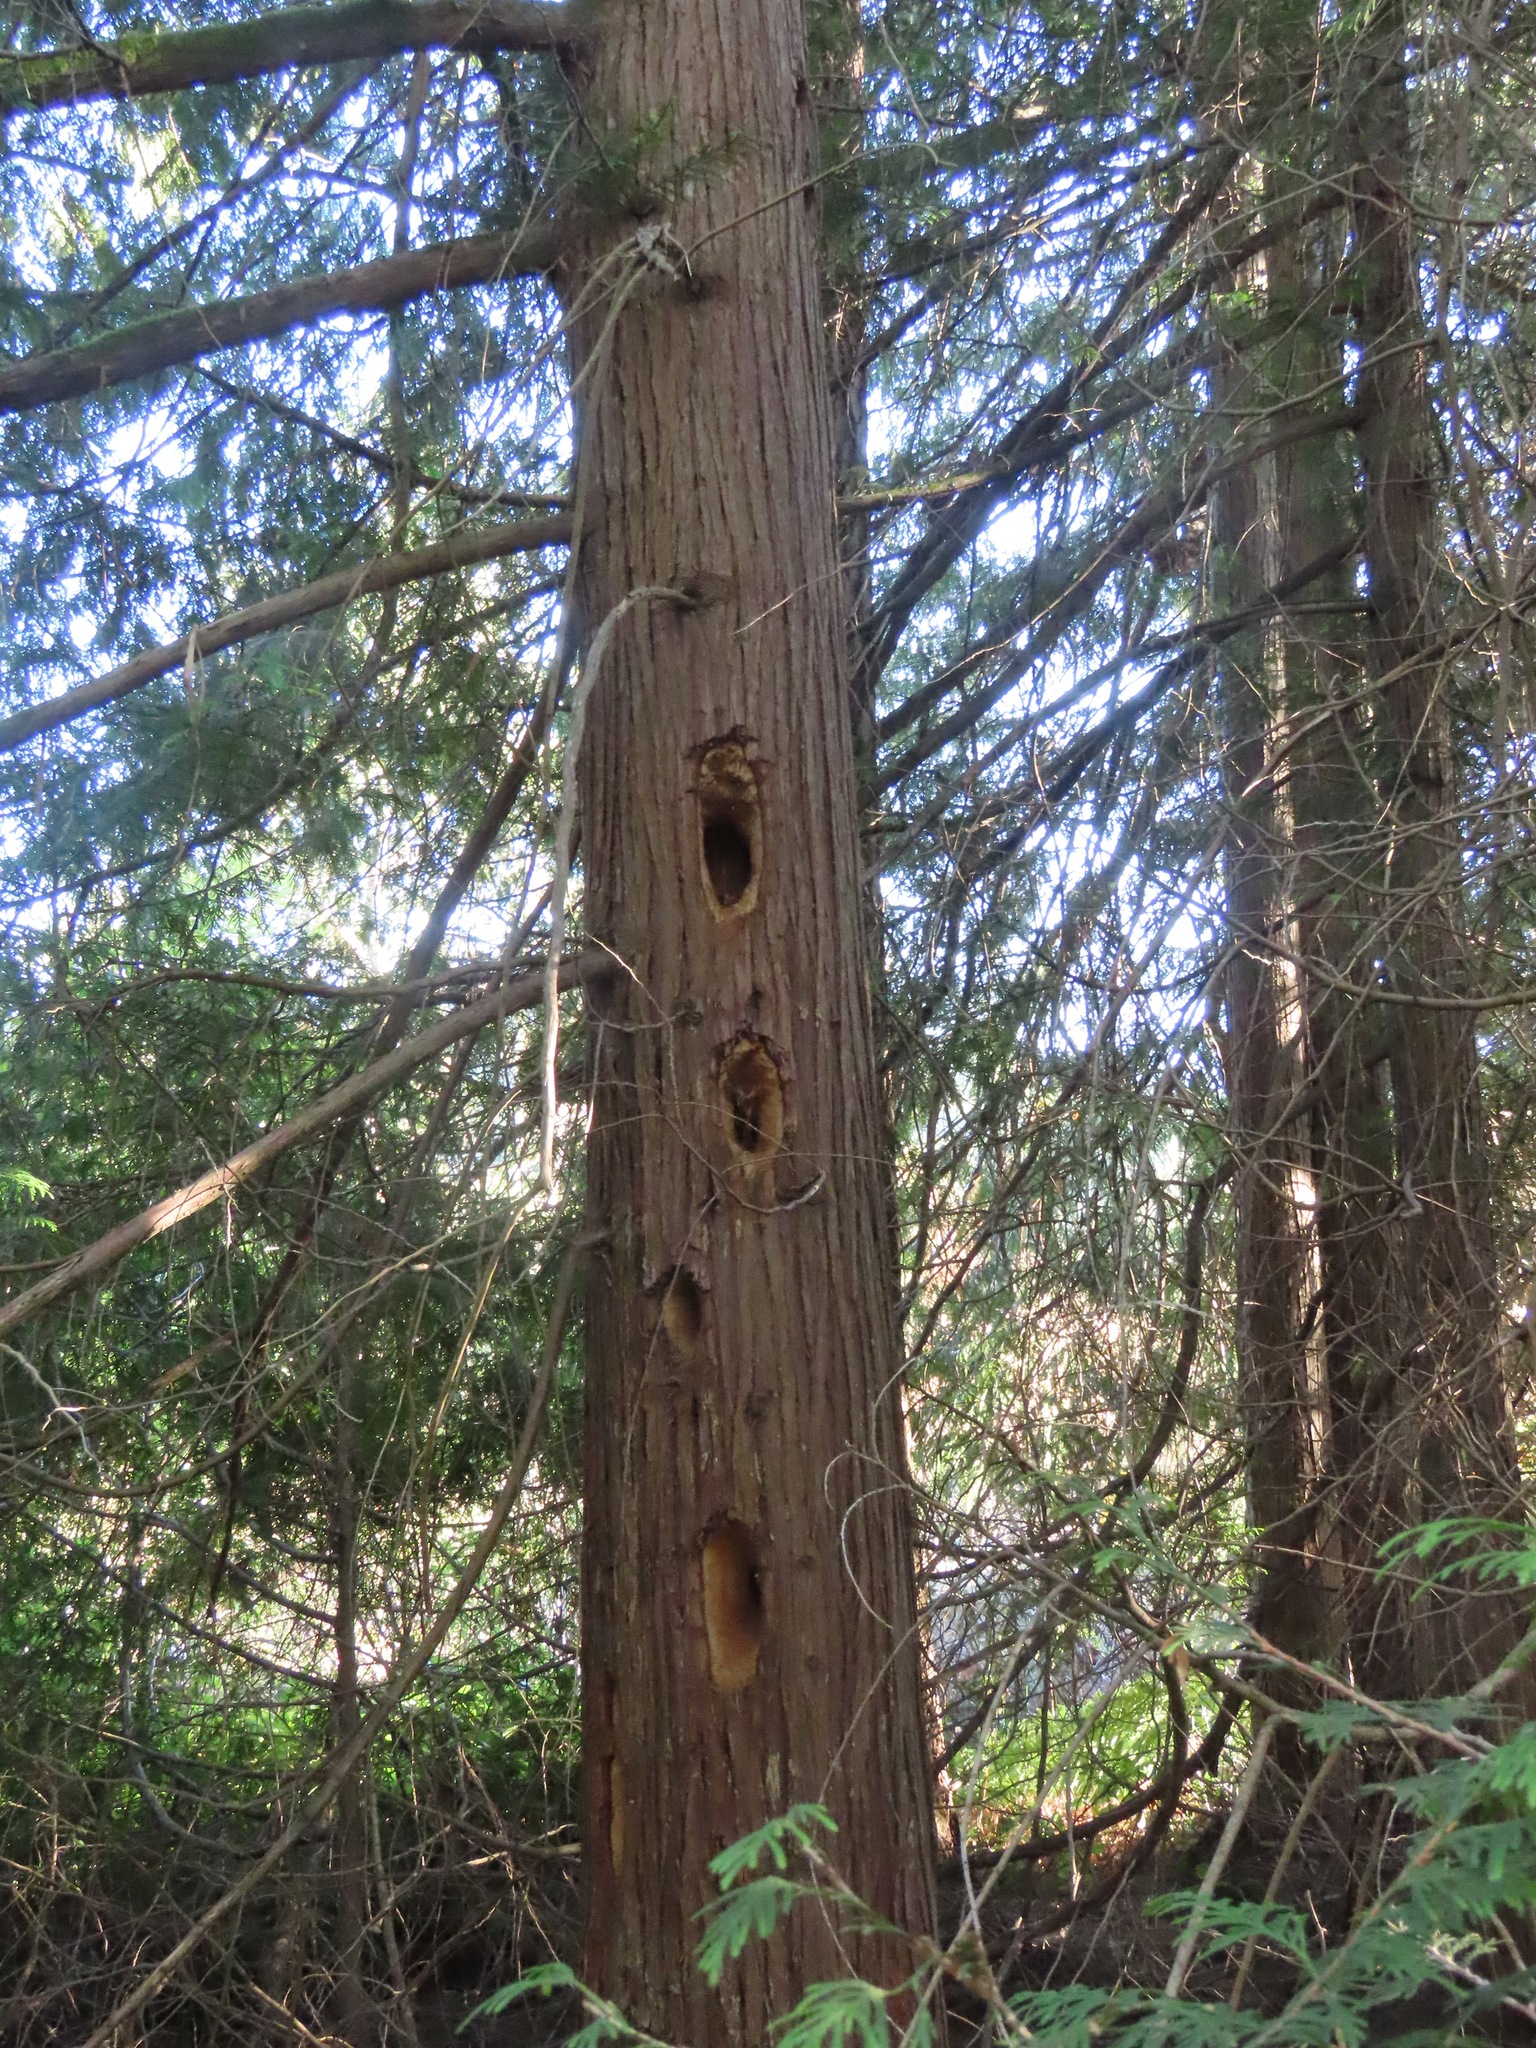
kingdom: Animalia
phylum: Chordata
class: Aves
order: Piciformes
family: Picidae
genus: Dryocopus
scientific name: Dryocopus pileatus
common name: Pileated woodpecker
